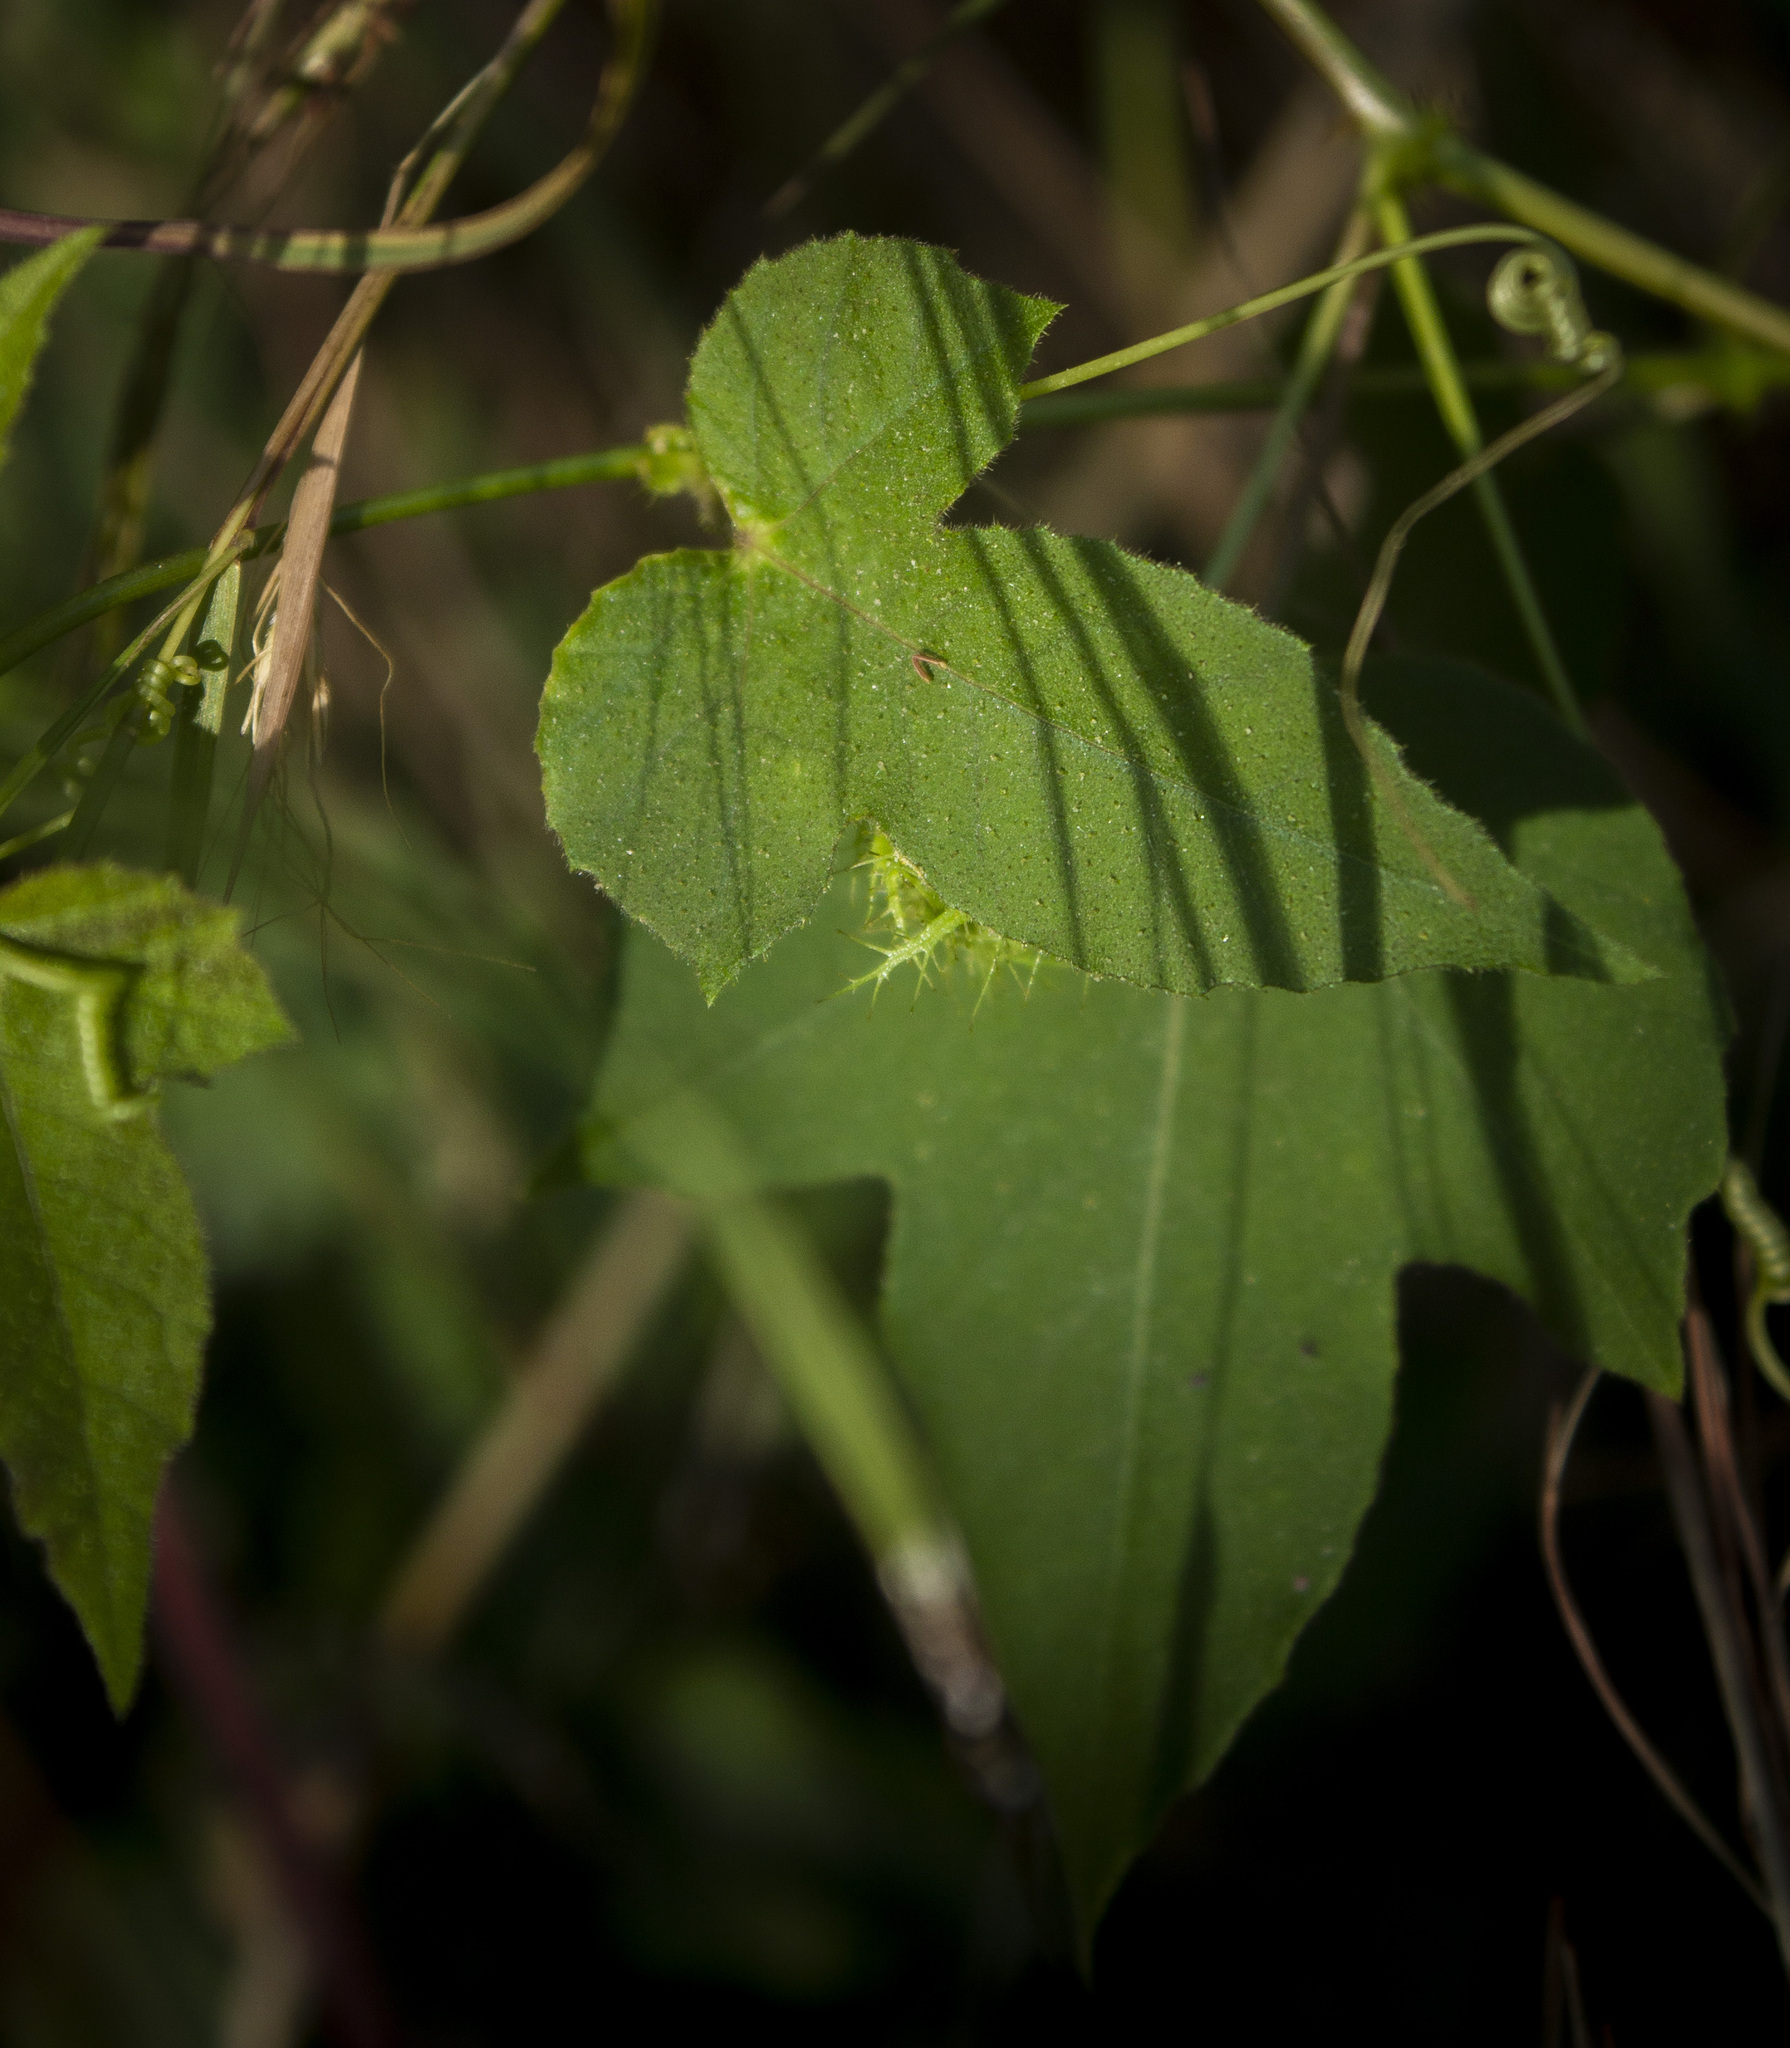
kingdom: Plantae
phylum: Tracheophyta
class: Magnoliopsida
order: Malpighiales
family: Passifloraceae
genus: Passiflora
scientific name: Passiflora vesicaria
